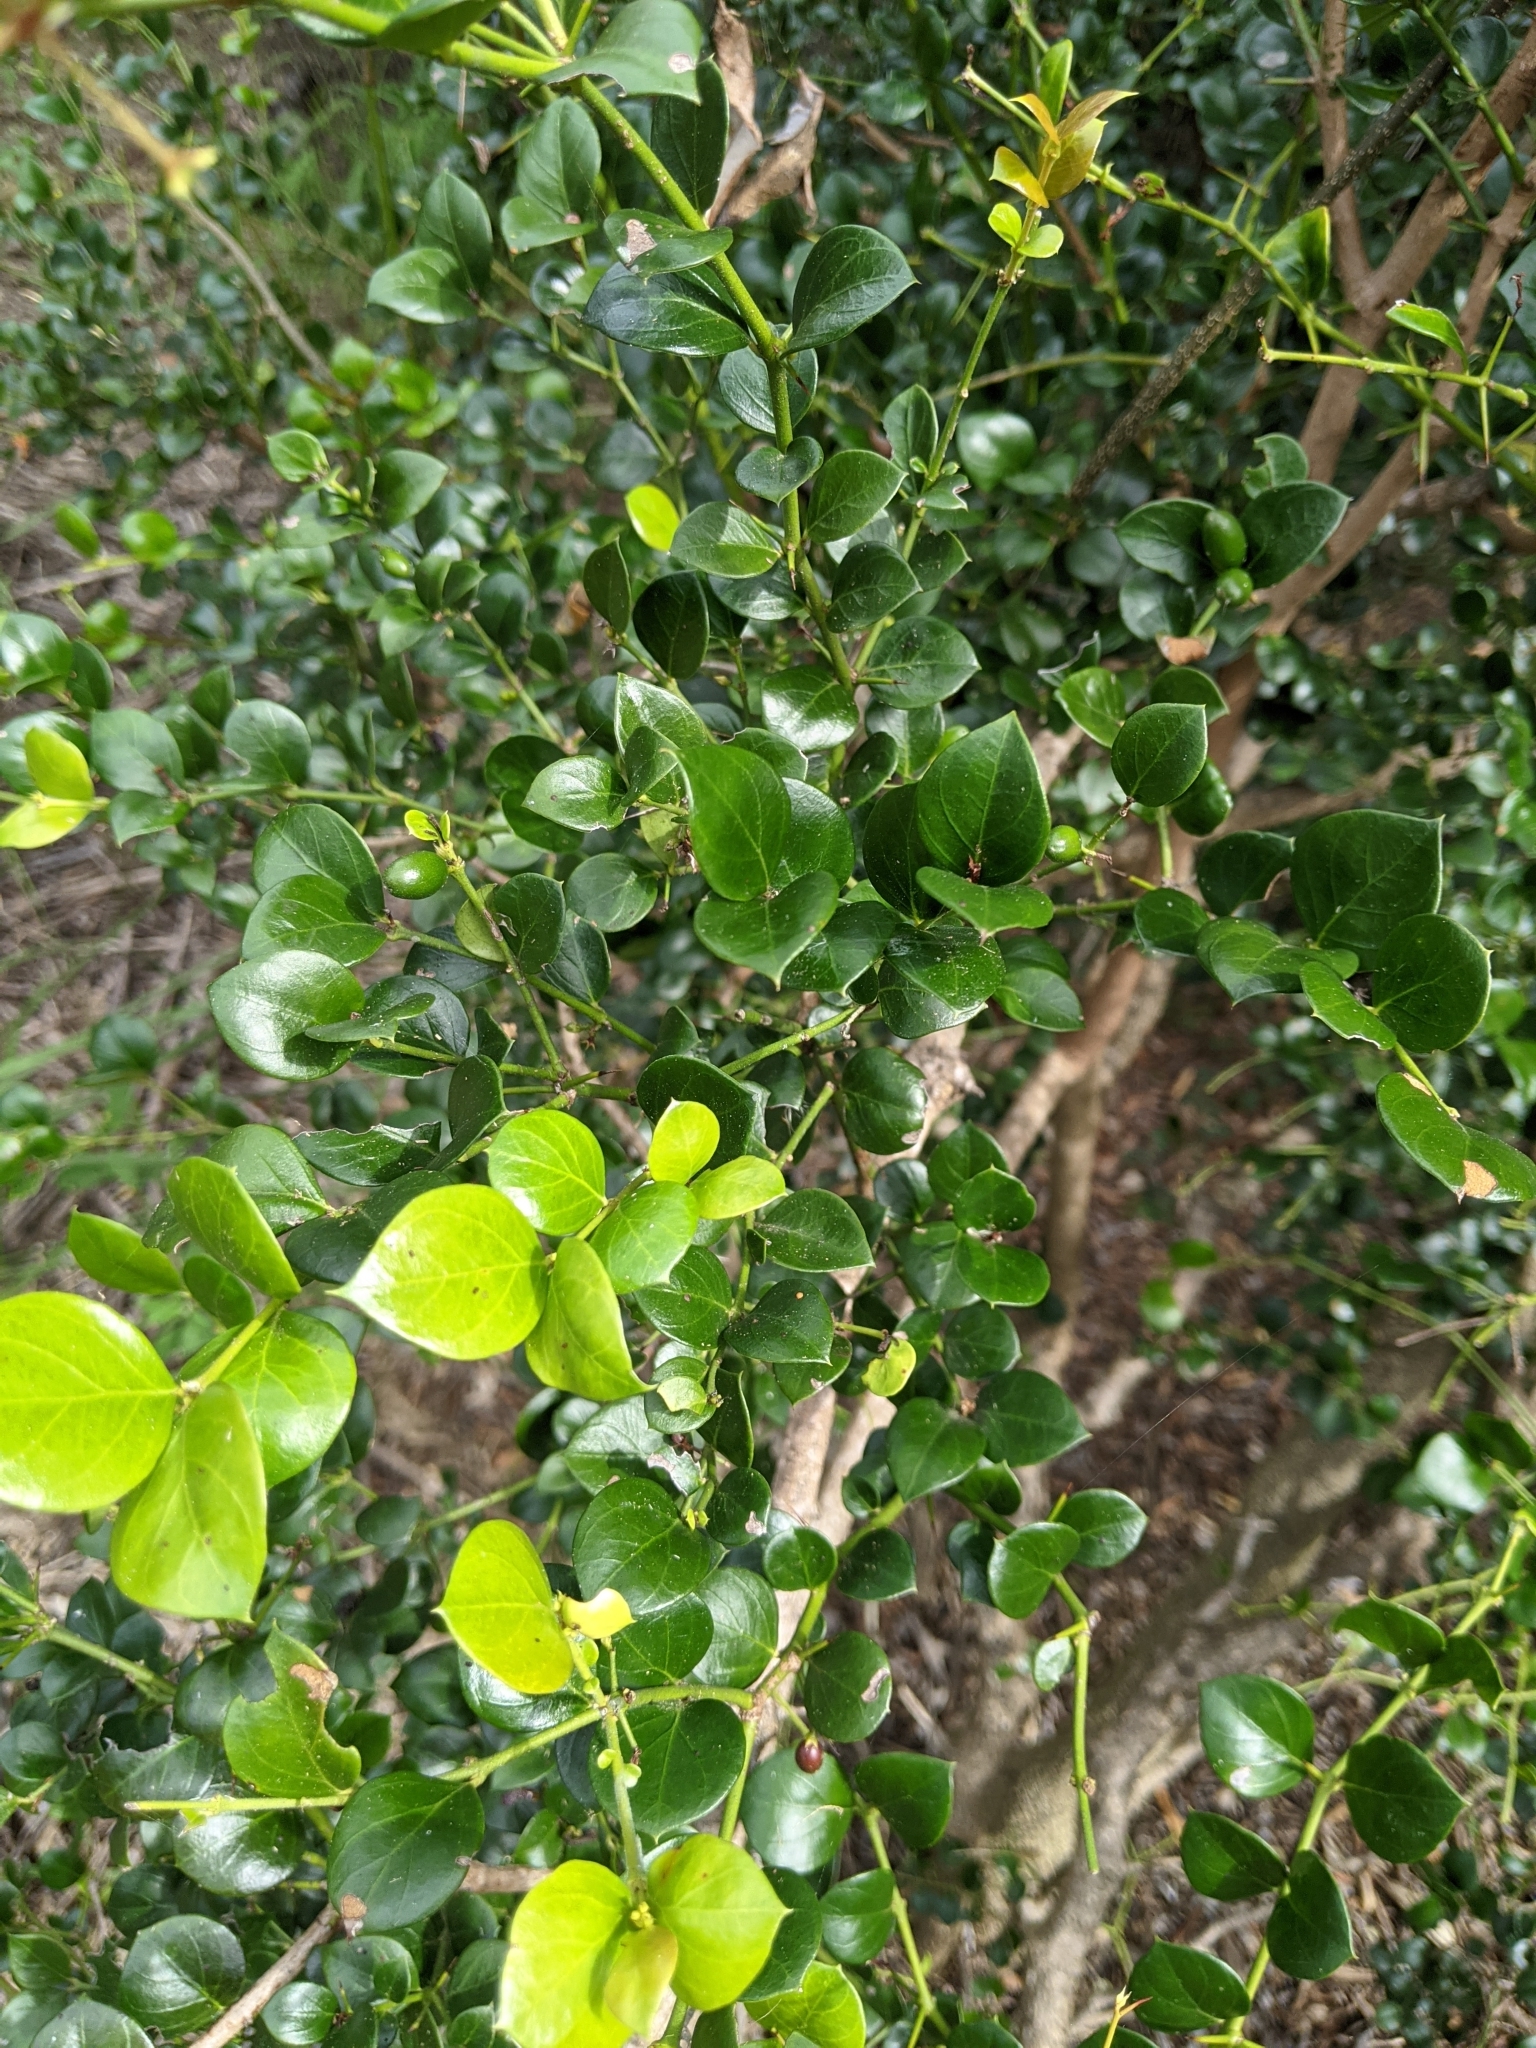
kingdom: Plantae
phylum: Tracheophyta
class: Magnoliopsida
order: Gentianales
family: Apocynaceae
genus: Carissa
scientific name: Carissa ovata
